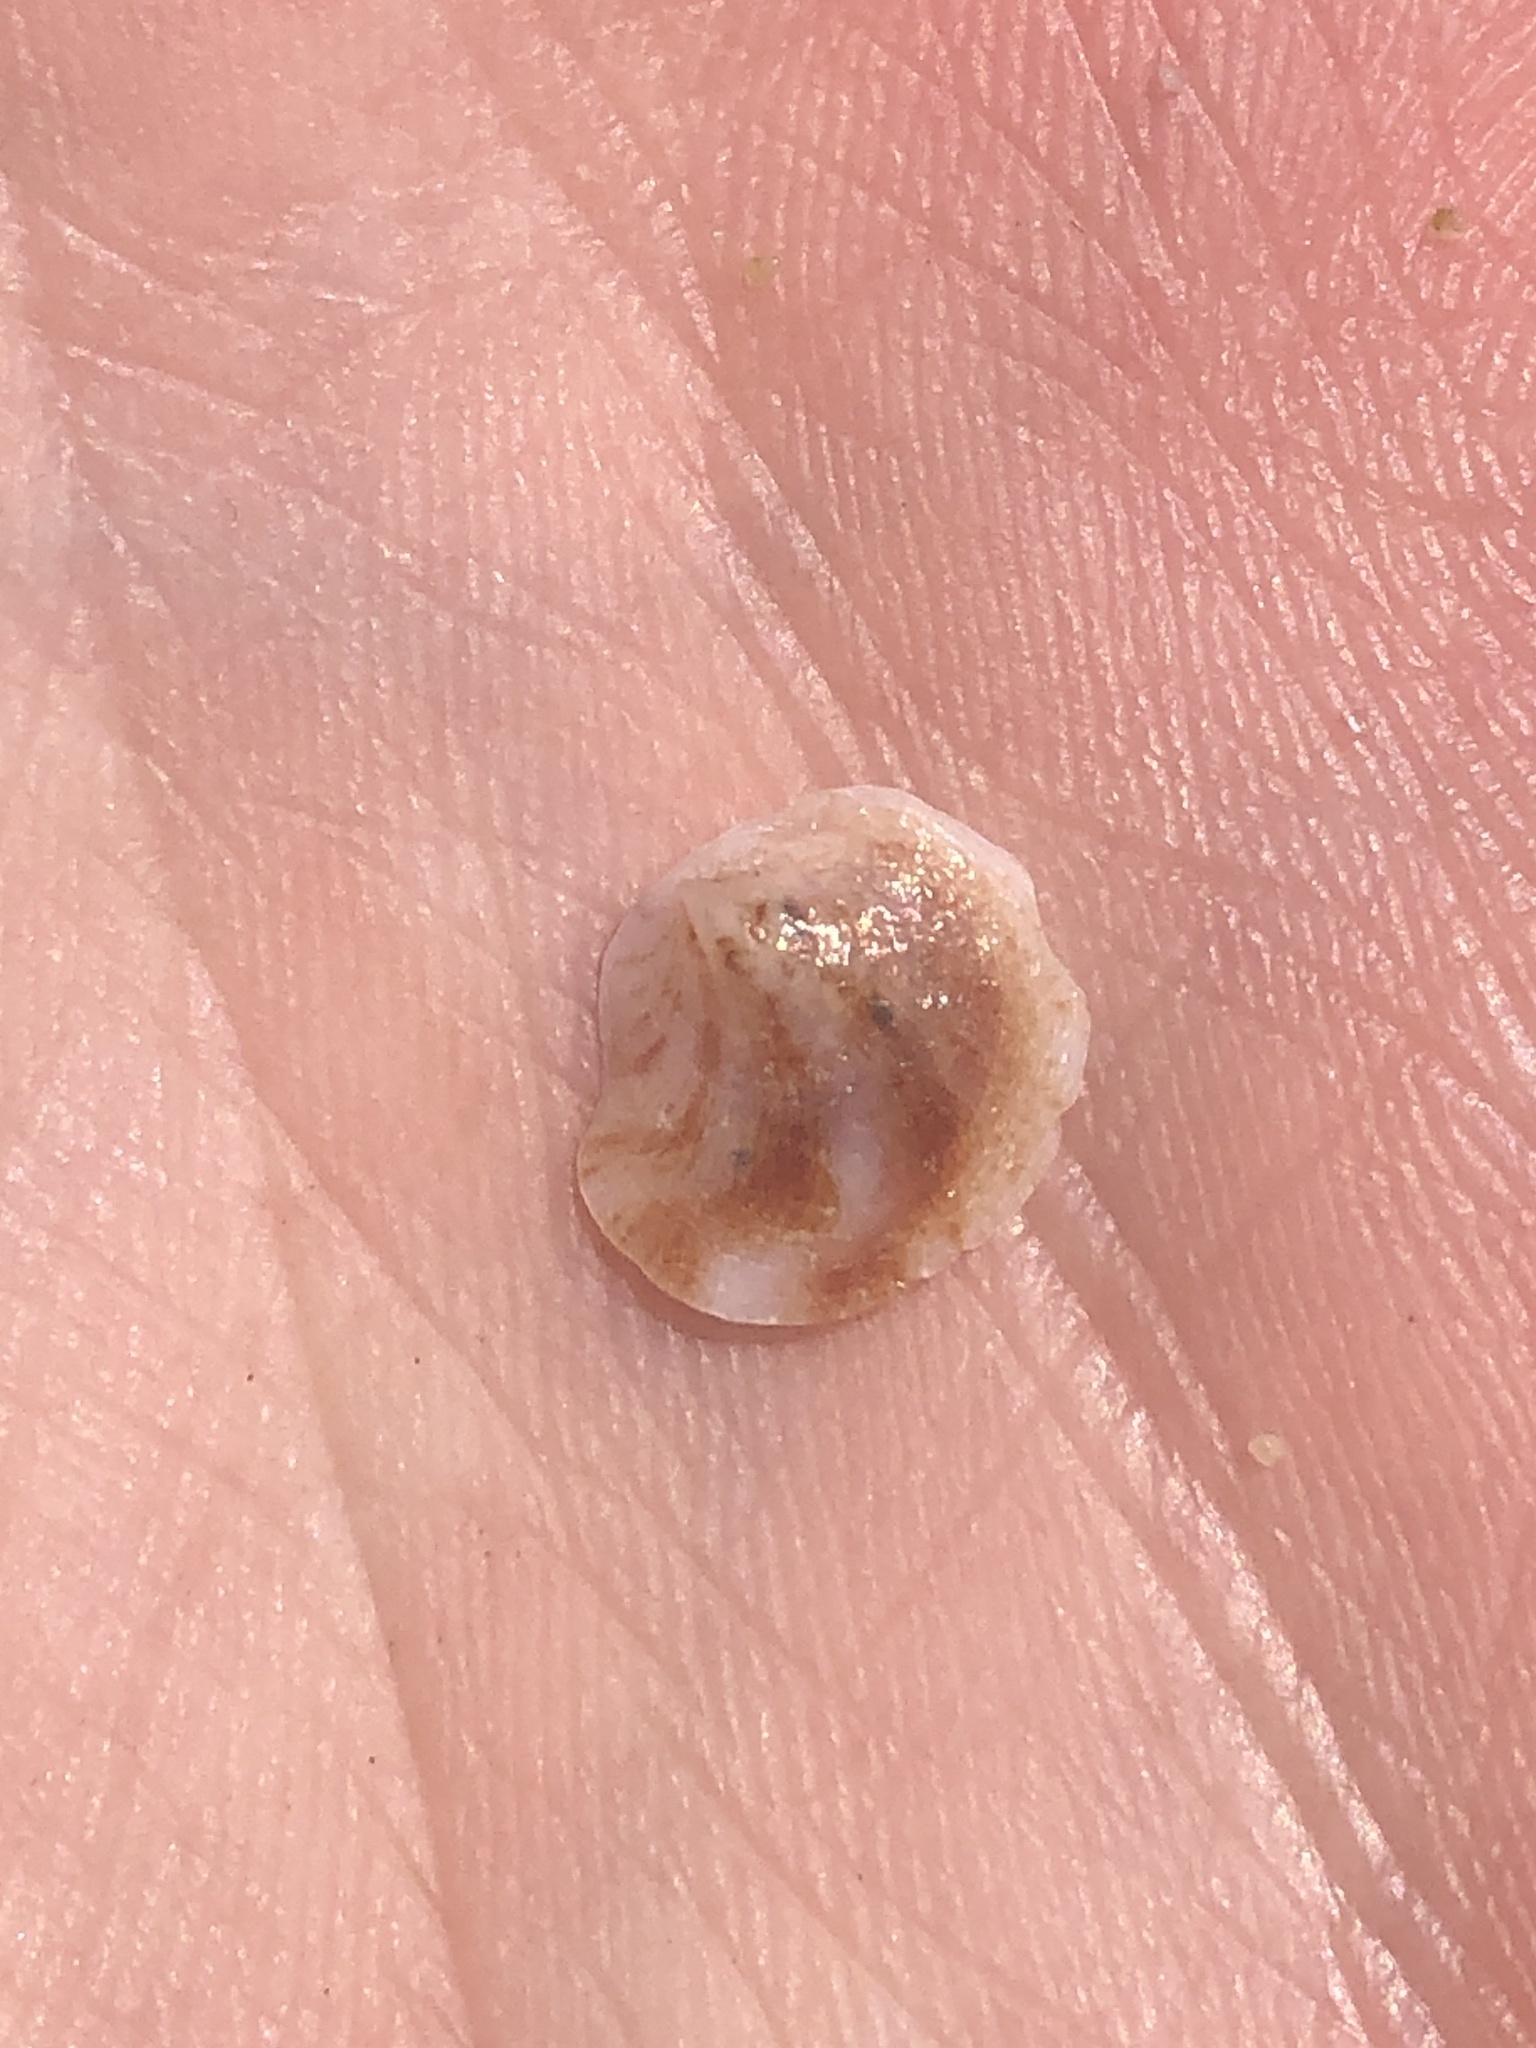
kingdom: Animalia
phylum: Mollusca
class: Gastropoda
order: Littorinimorpha
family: Calyptraeidae
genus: Crepipatella
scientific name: Crepipatella lingulata
